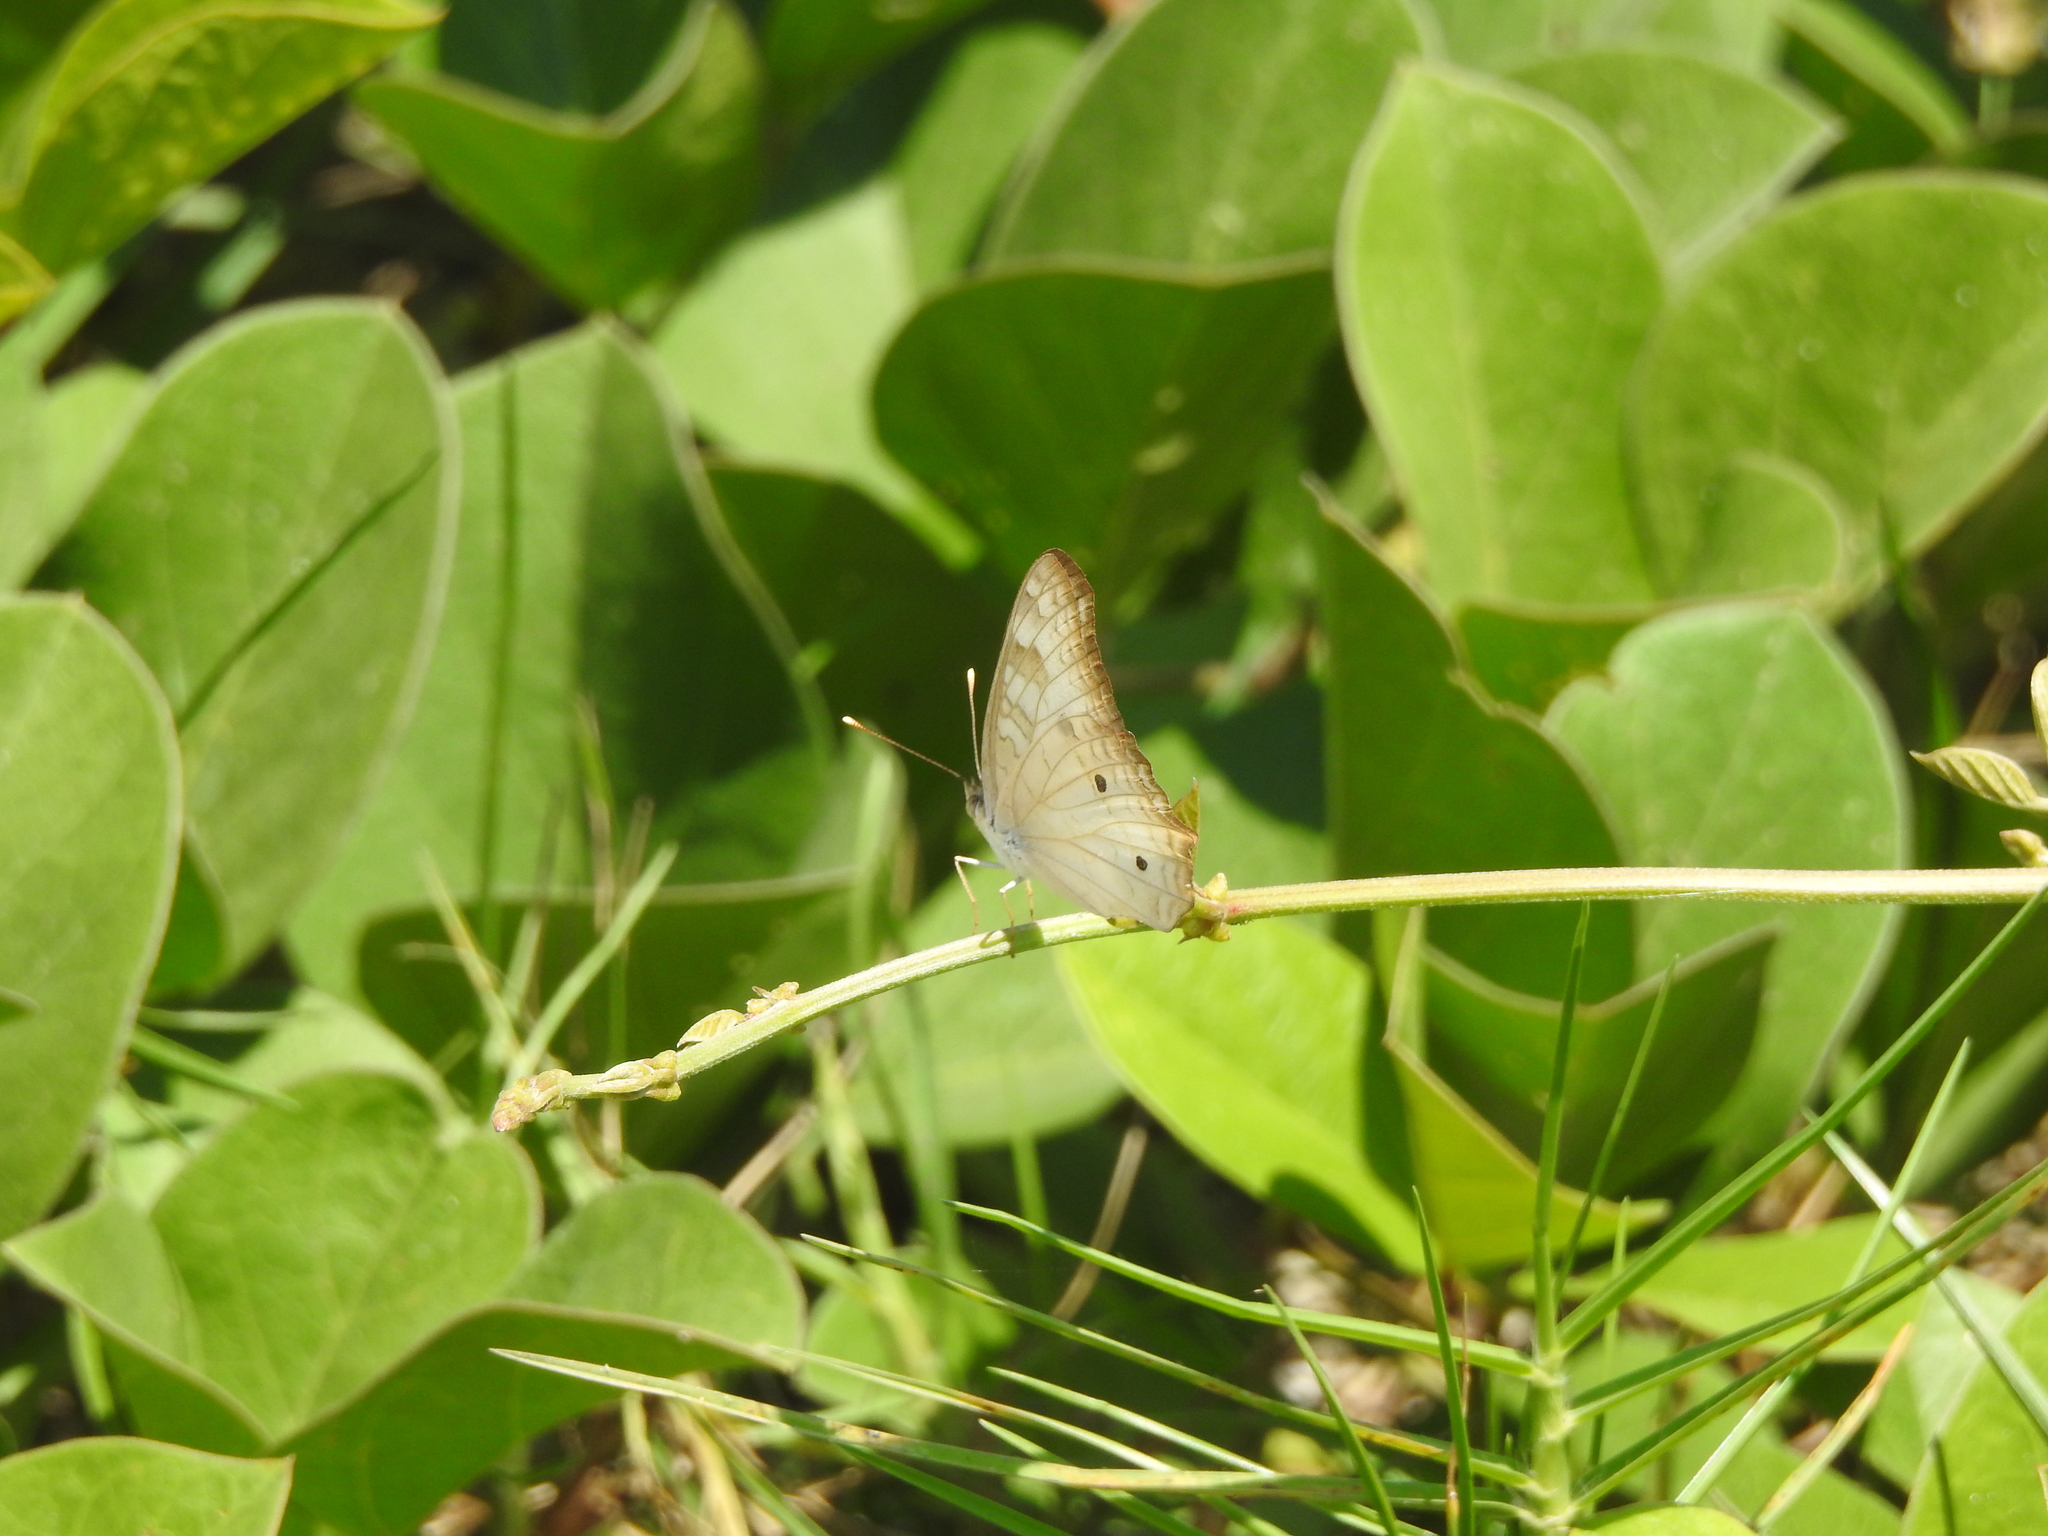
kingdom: Animalia
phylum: Arthropoda
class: Insecta
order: Lepidoptera
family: Nymphalidae
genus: Anartia
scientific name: Anartia jatrophae
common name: White peacock
